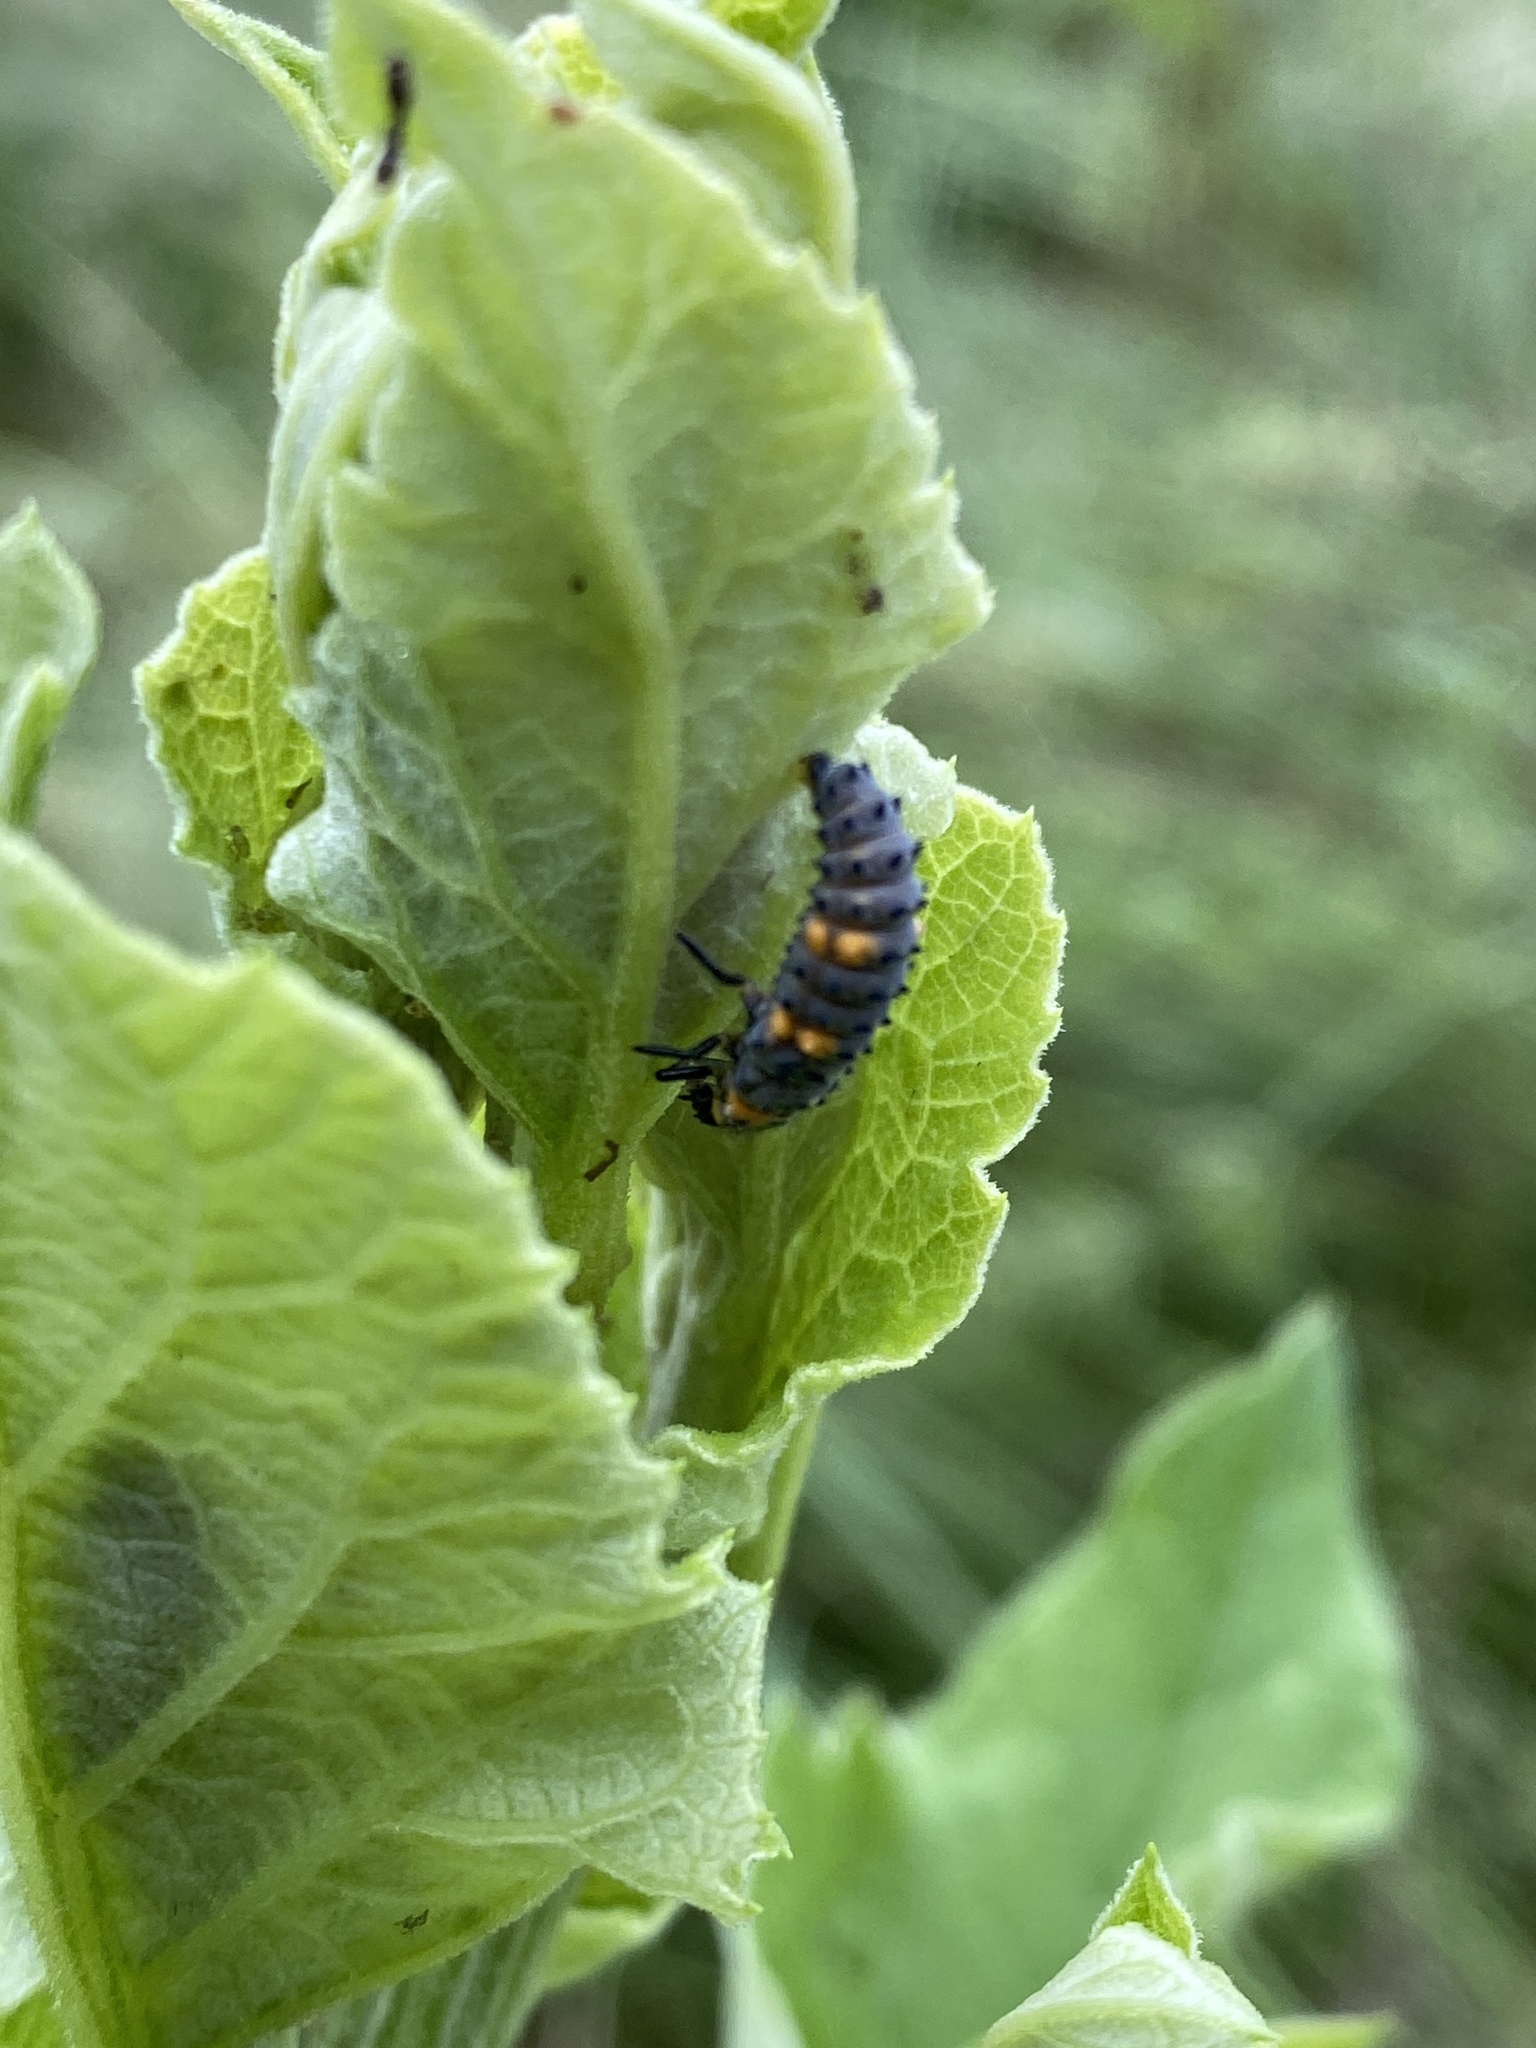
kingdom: Animalia
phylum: Arthropoda
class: Insecta
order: Coleoptera
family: Coccinellidae
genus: Coccinella
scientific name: Coccinella septempunctata
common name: Sevenspotted lady beetle
